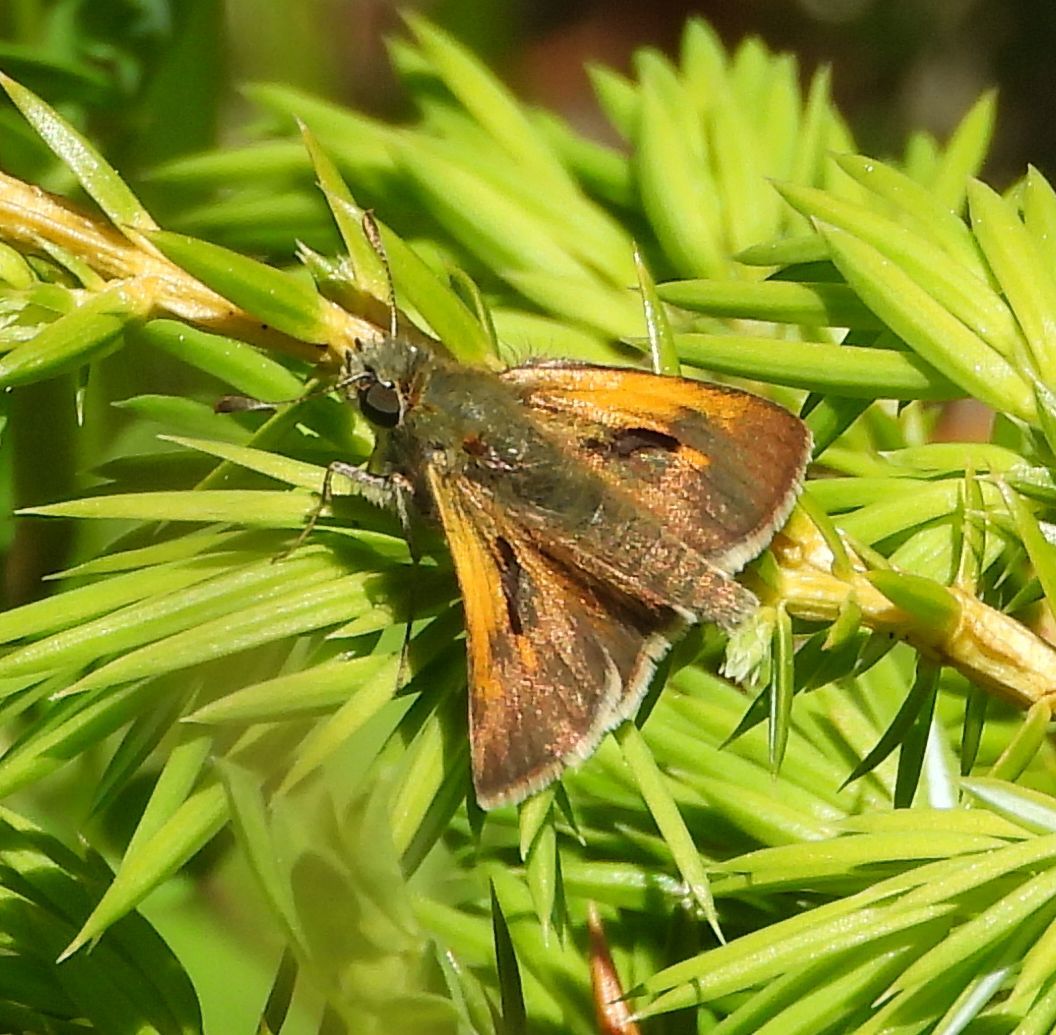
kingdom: Animalia
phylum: Arthropoda
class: Insecta
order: Lepidoptera
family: Hesperiidae
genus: Polites
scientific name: Polites themistocles
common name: Tawny-edged skipper
